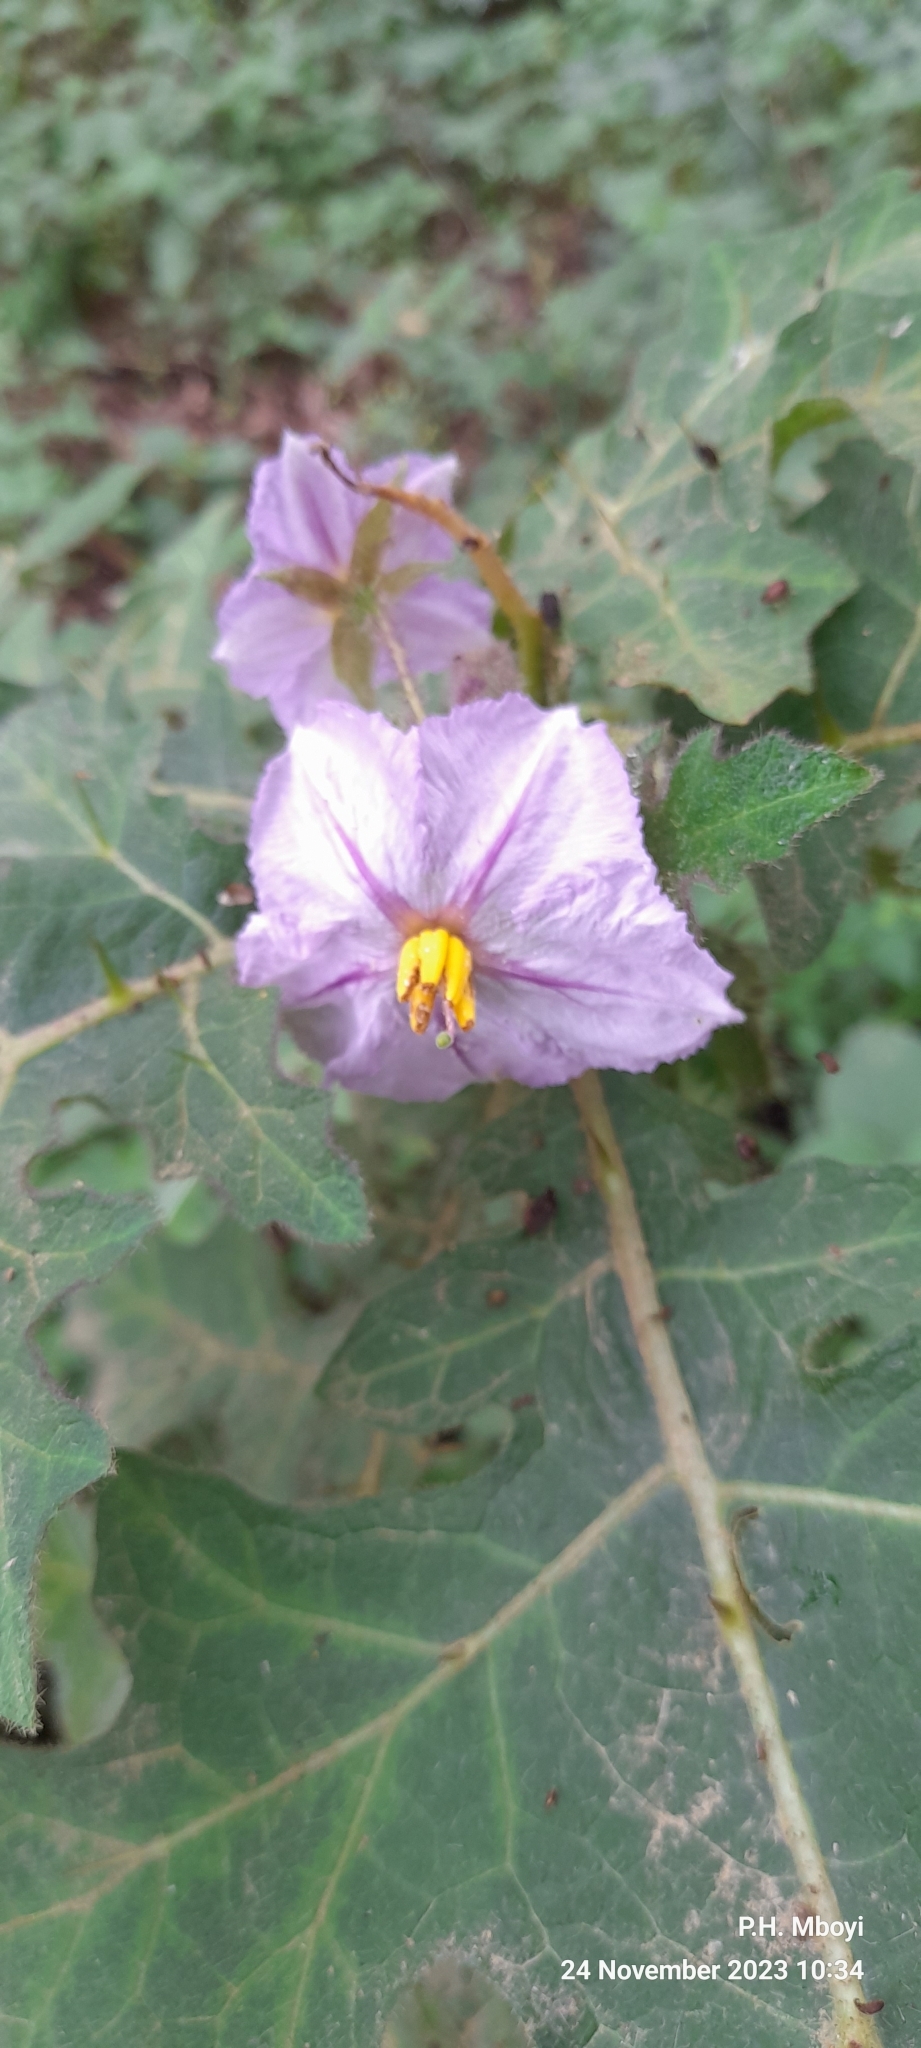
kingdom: Plantae
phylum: Tracheophyta
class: Magnoliopsida
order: Solanales
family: Solanaceae
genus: Solanum
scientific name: Solanum dasyphyllum
